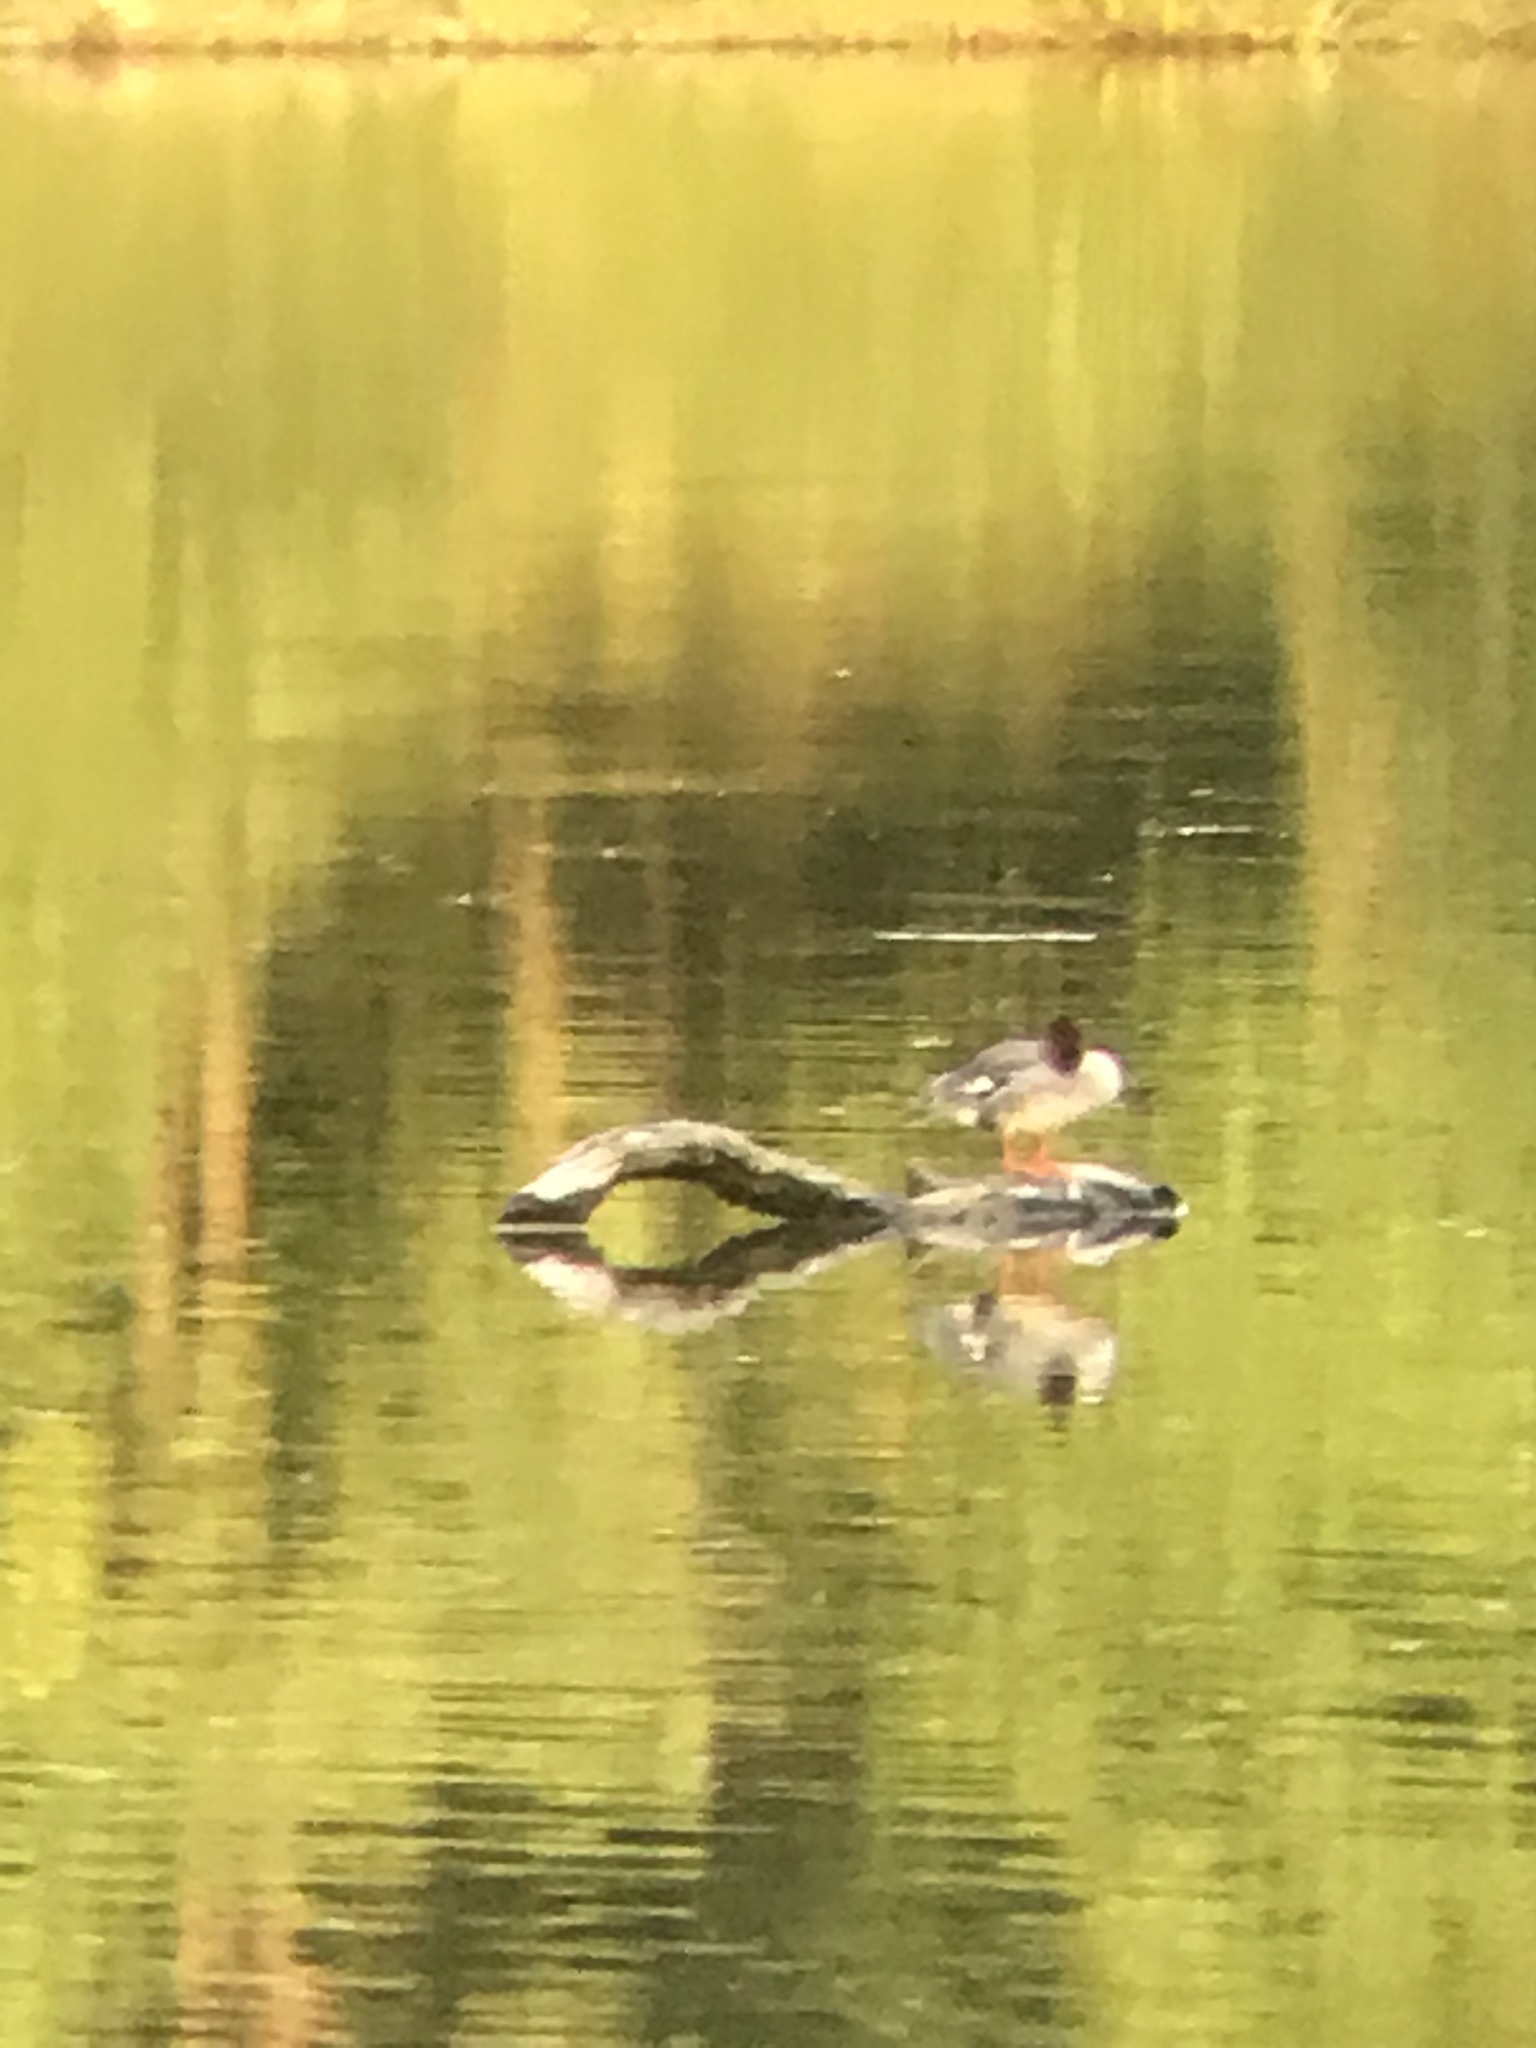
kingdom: Animalia
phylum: Chordata
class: Aves
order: Anseriformes
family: Anatidae
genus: Mergus
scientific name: Mergus merganser
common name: Common merganser
